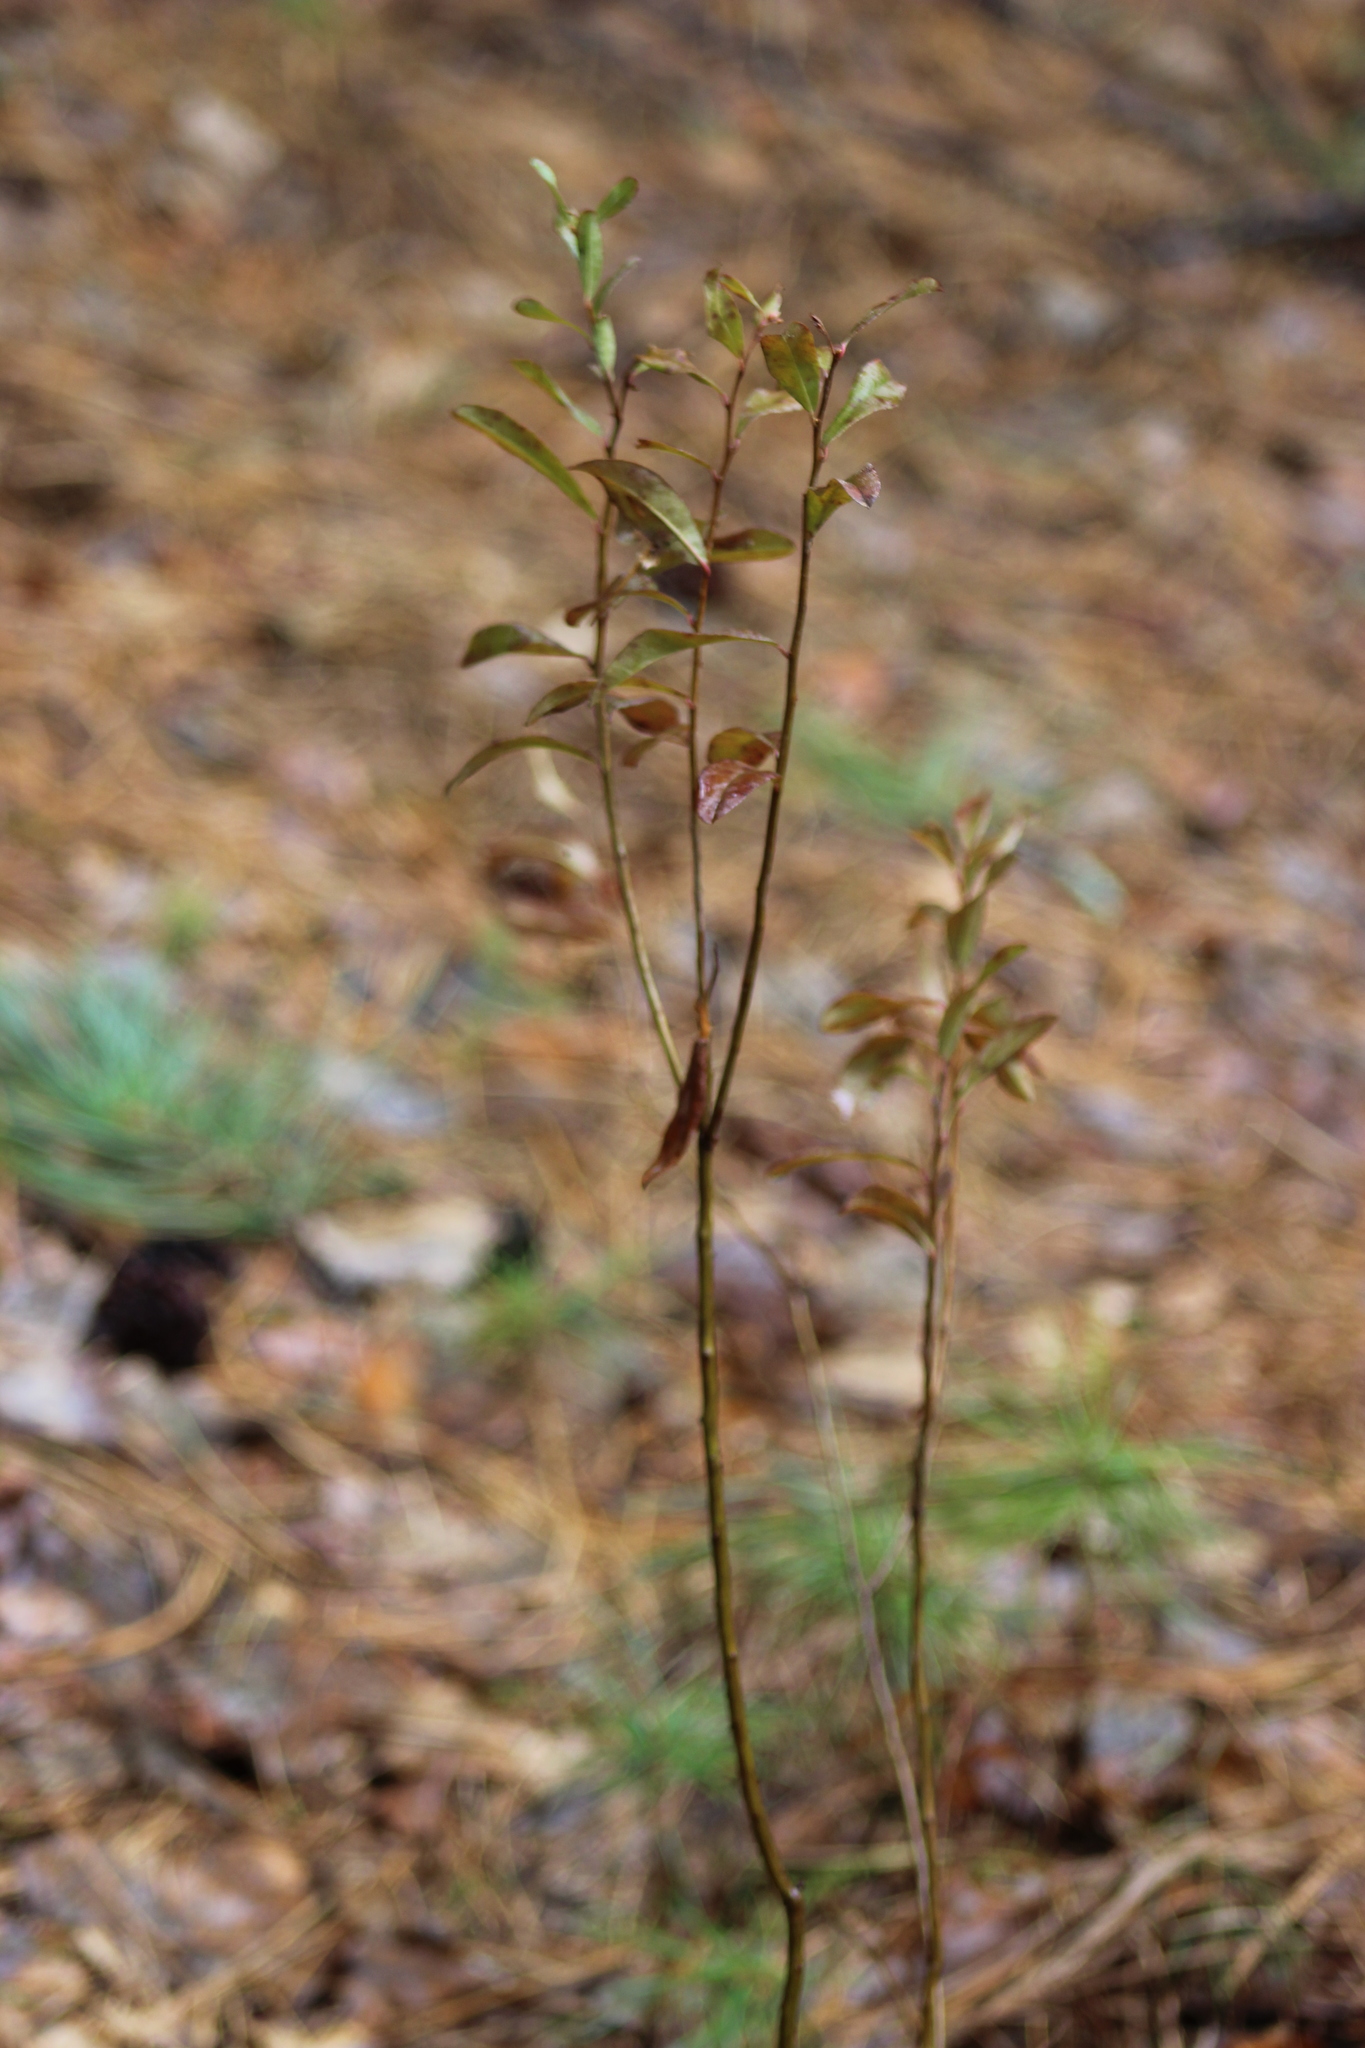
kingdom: Plantae
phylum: Tracheophyta
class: Magnoliopsida
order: Ericales
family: Ericaceae
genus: Vaccinium
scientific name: Vaccinium vitis-idaea
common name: Cowberry
